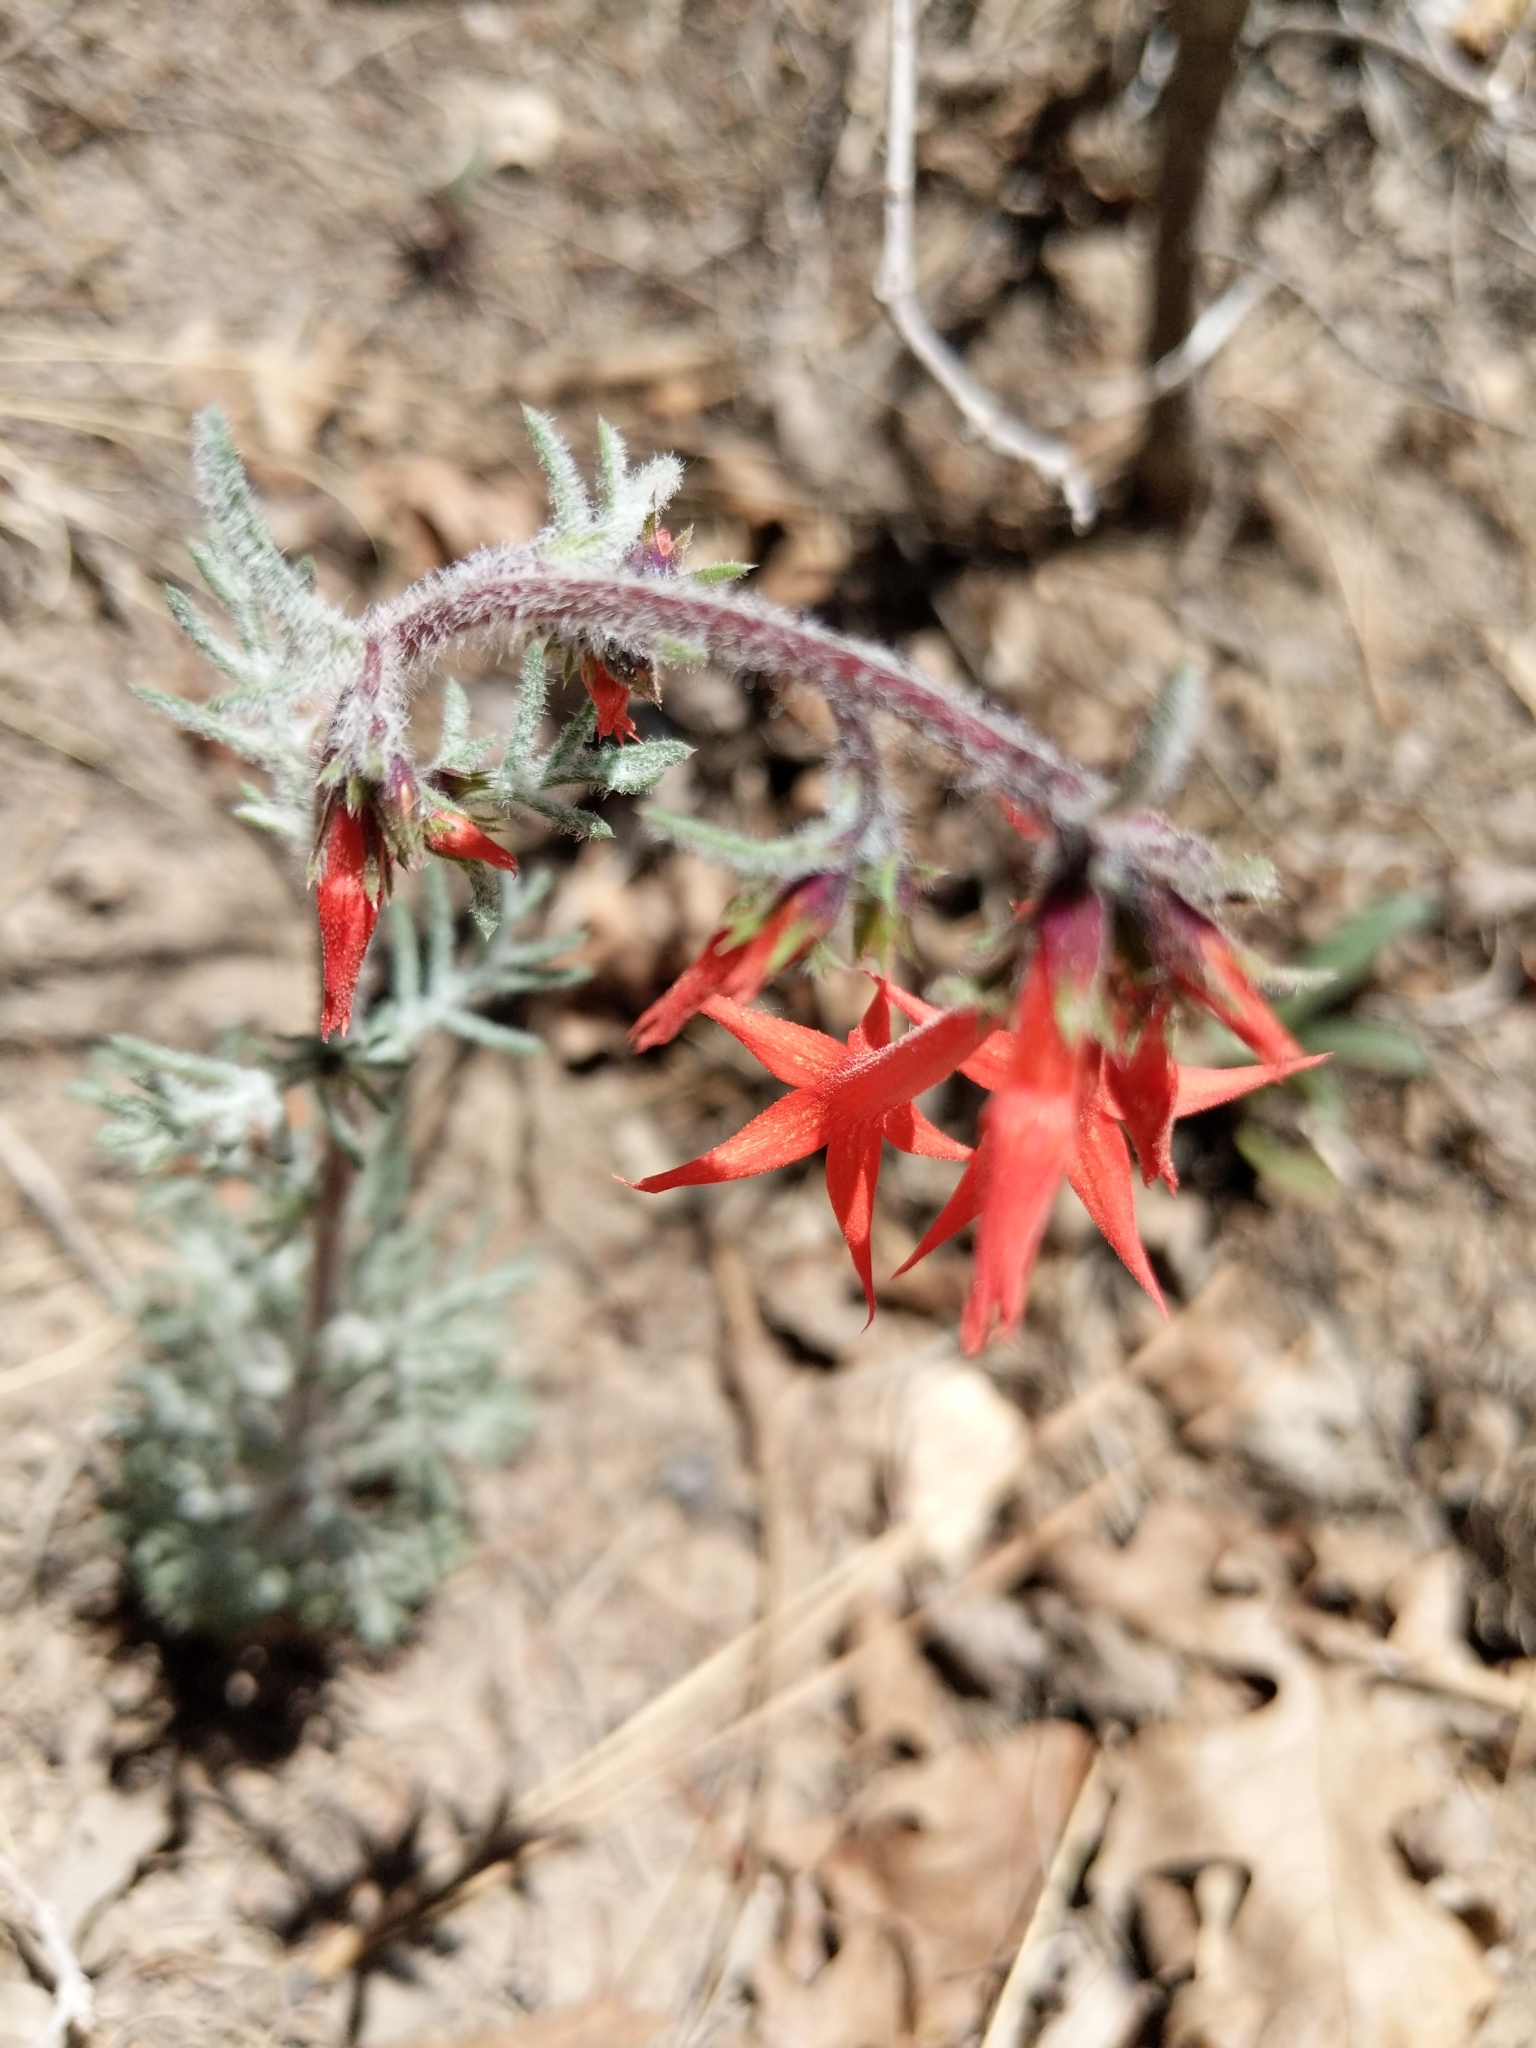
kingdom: Plantae
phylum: Tracheophyta
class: Magnoliopsida
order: Ericales
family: Polemoniaceae
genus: Ipomopsis
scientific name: Ipomopsis aggregata
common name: Scarlet gilia
